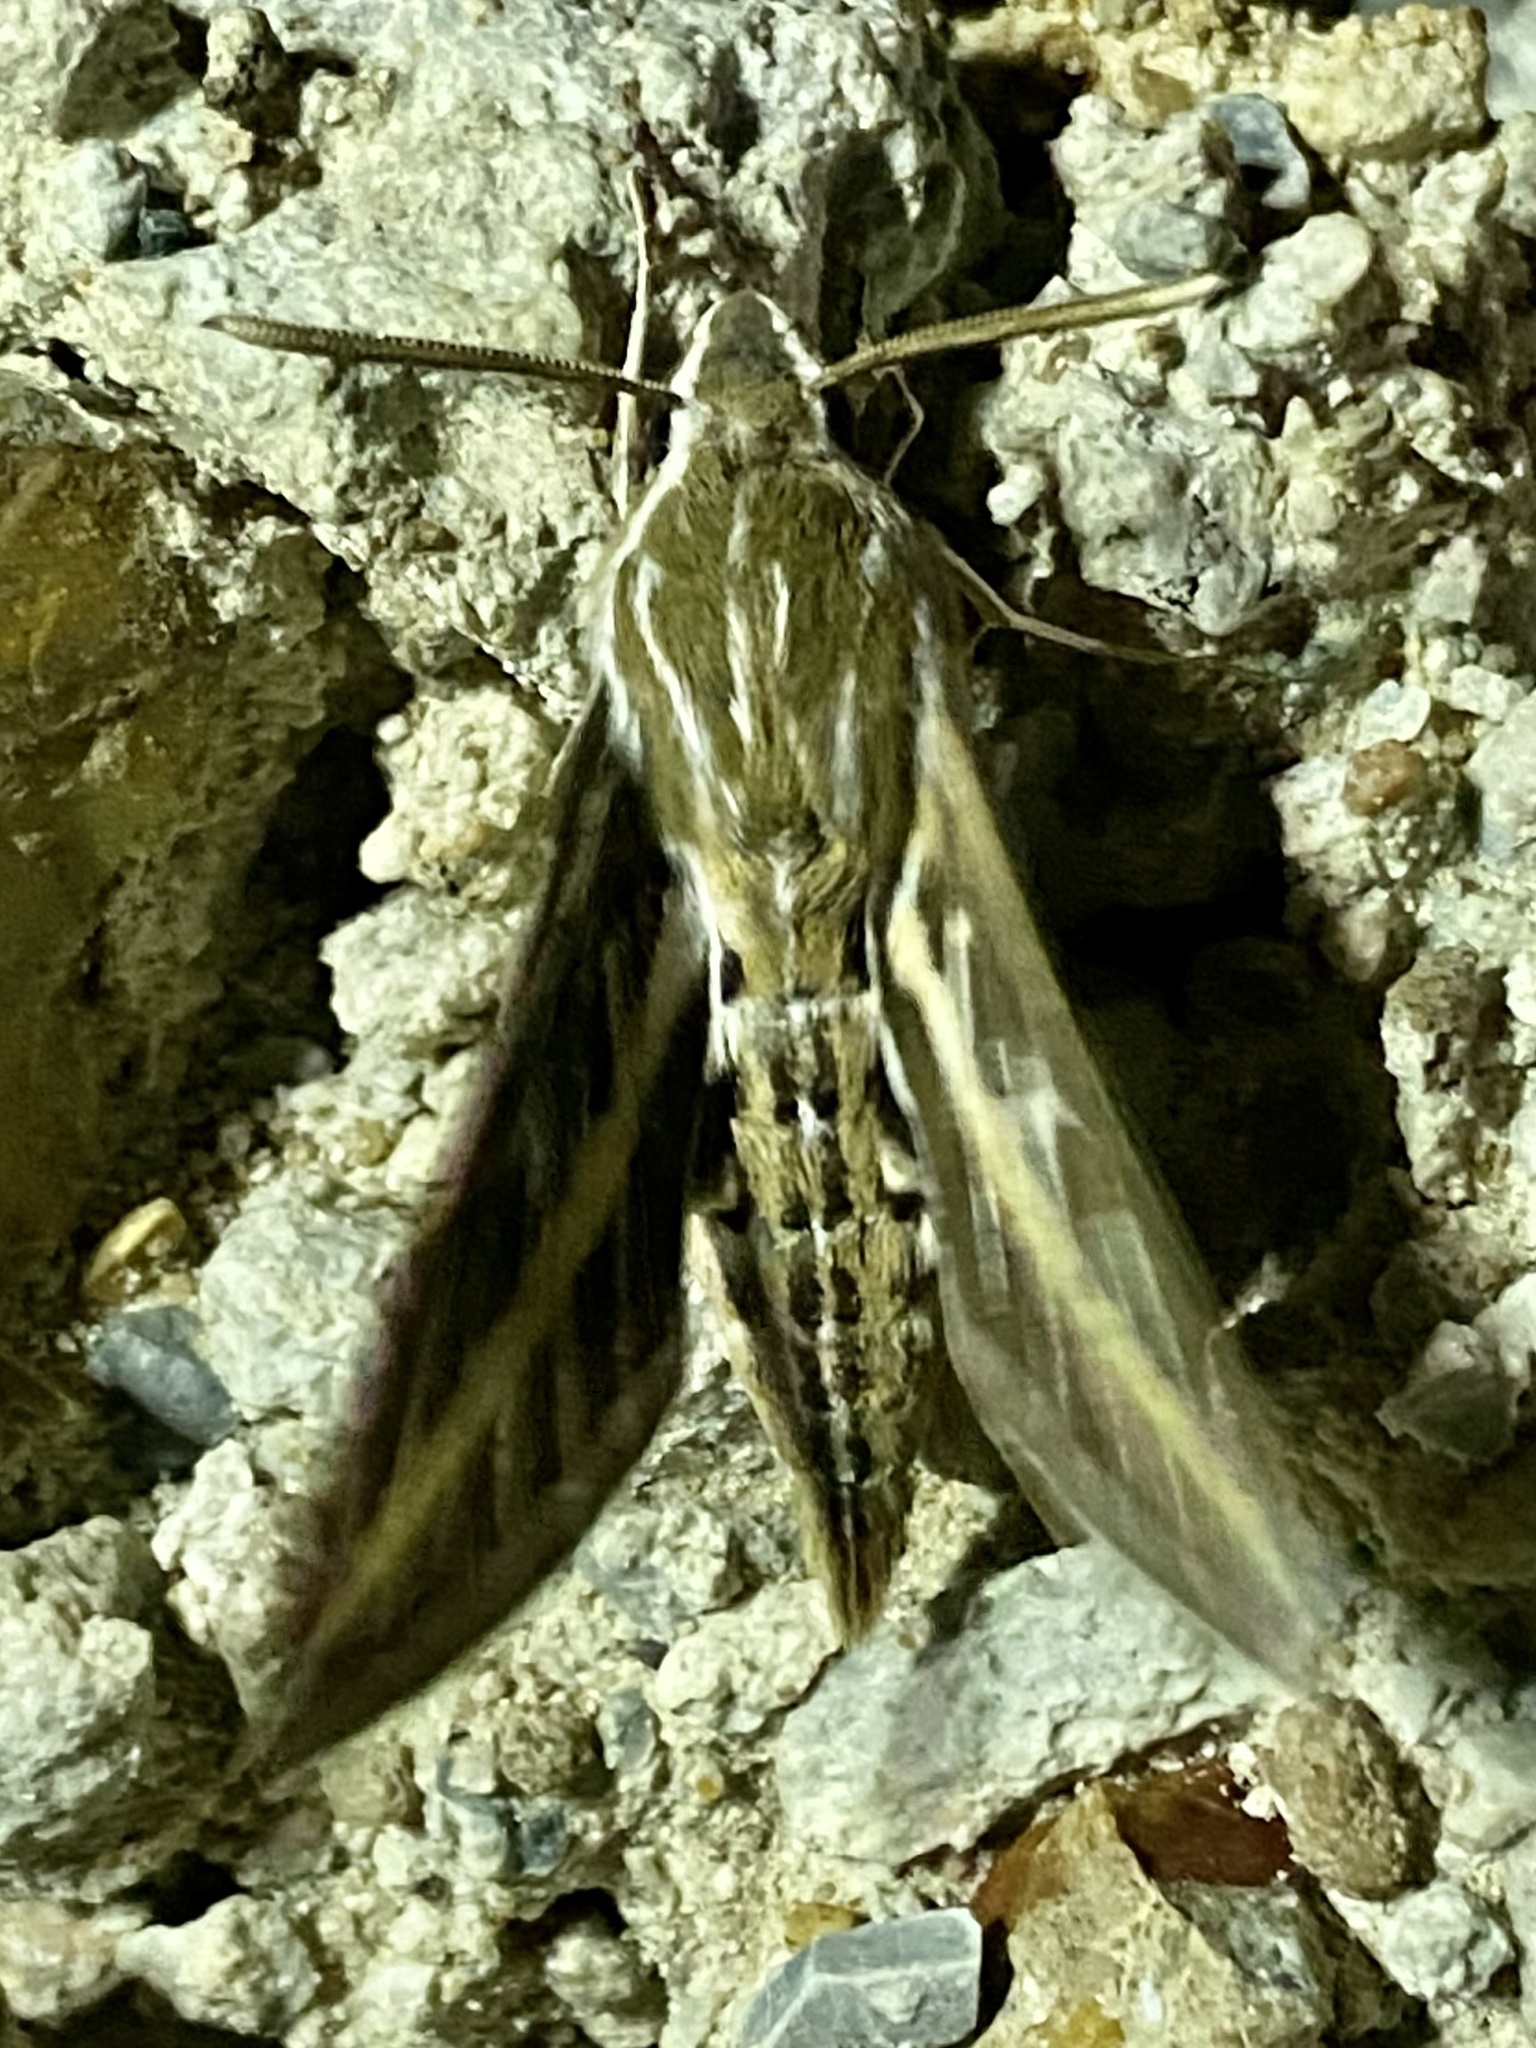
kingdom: Animalia
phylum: Arthropoda
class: Insecta
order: Lepidoptera
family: Sphingidae
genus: Hyles
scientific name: Hyles lineata
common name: White-lined sphinx
